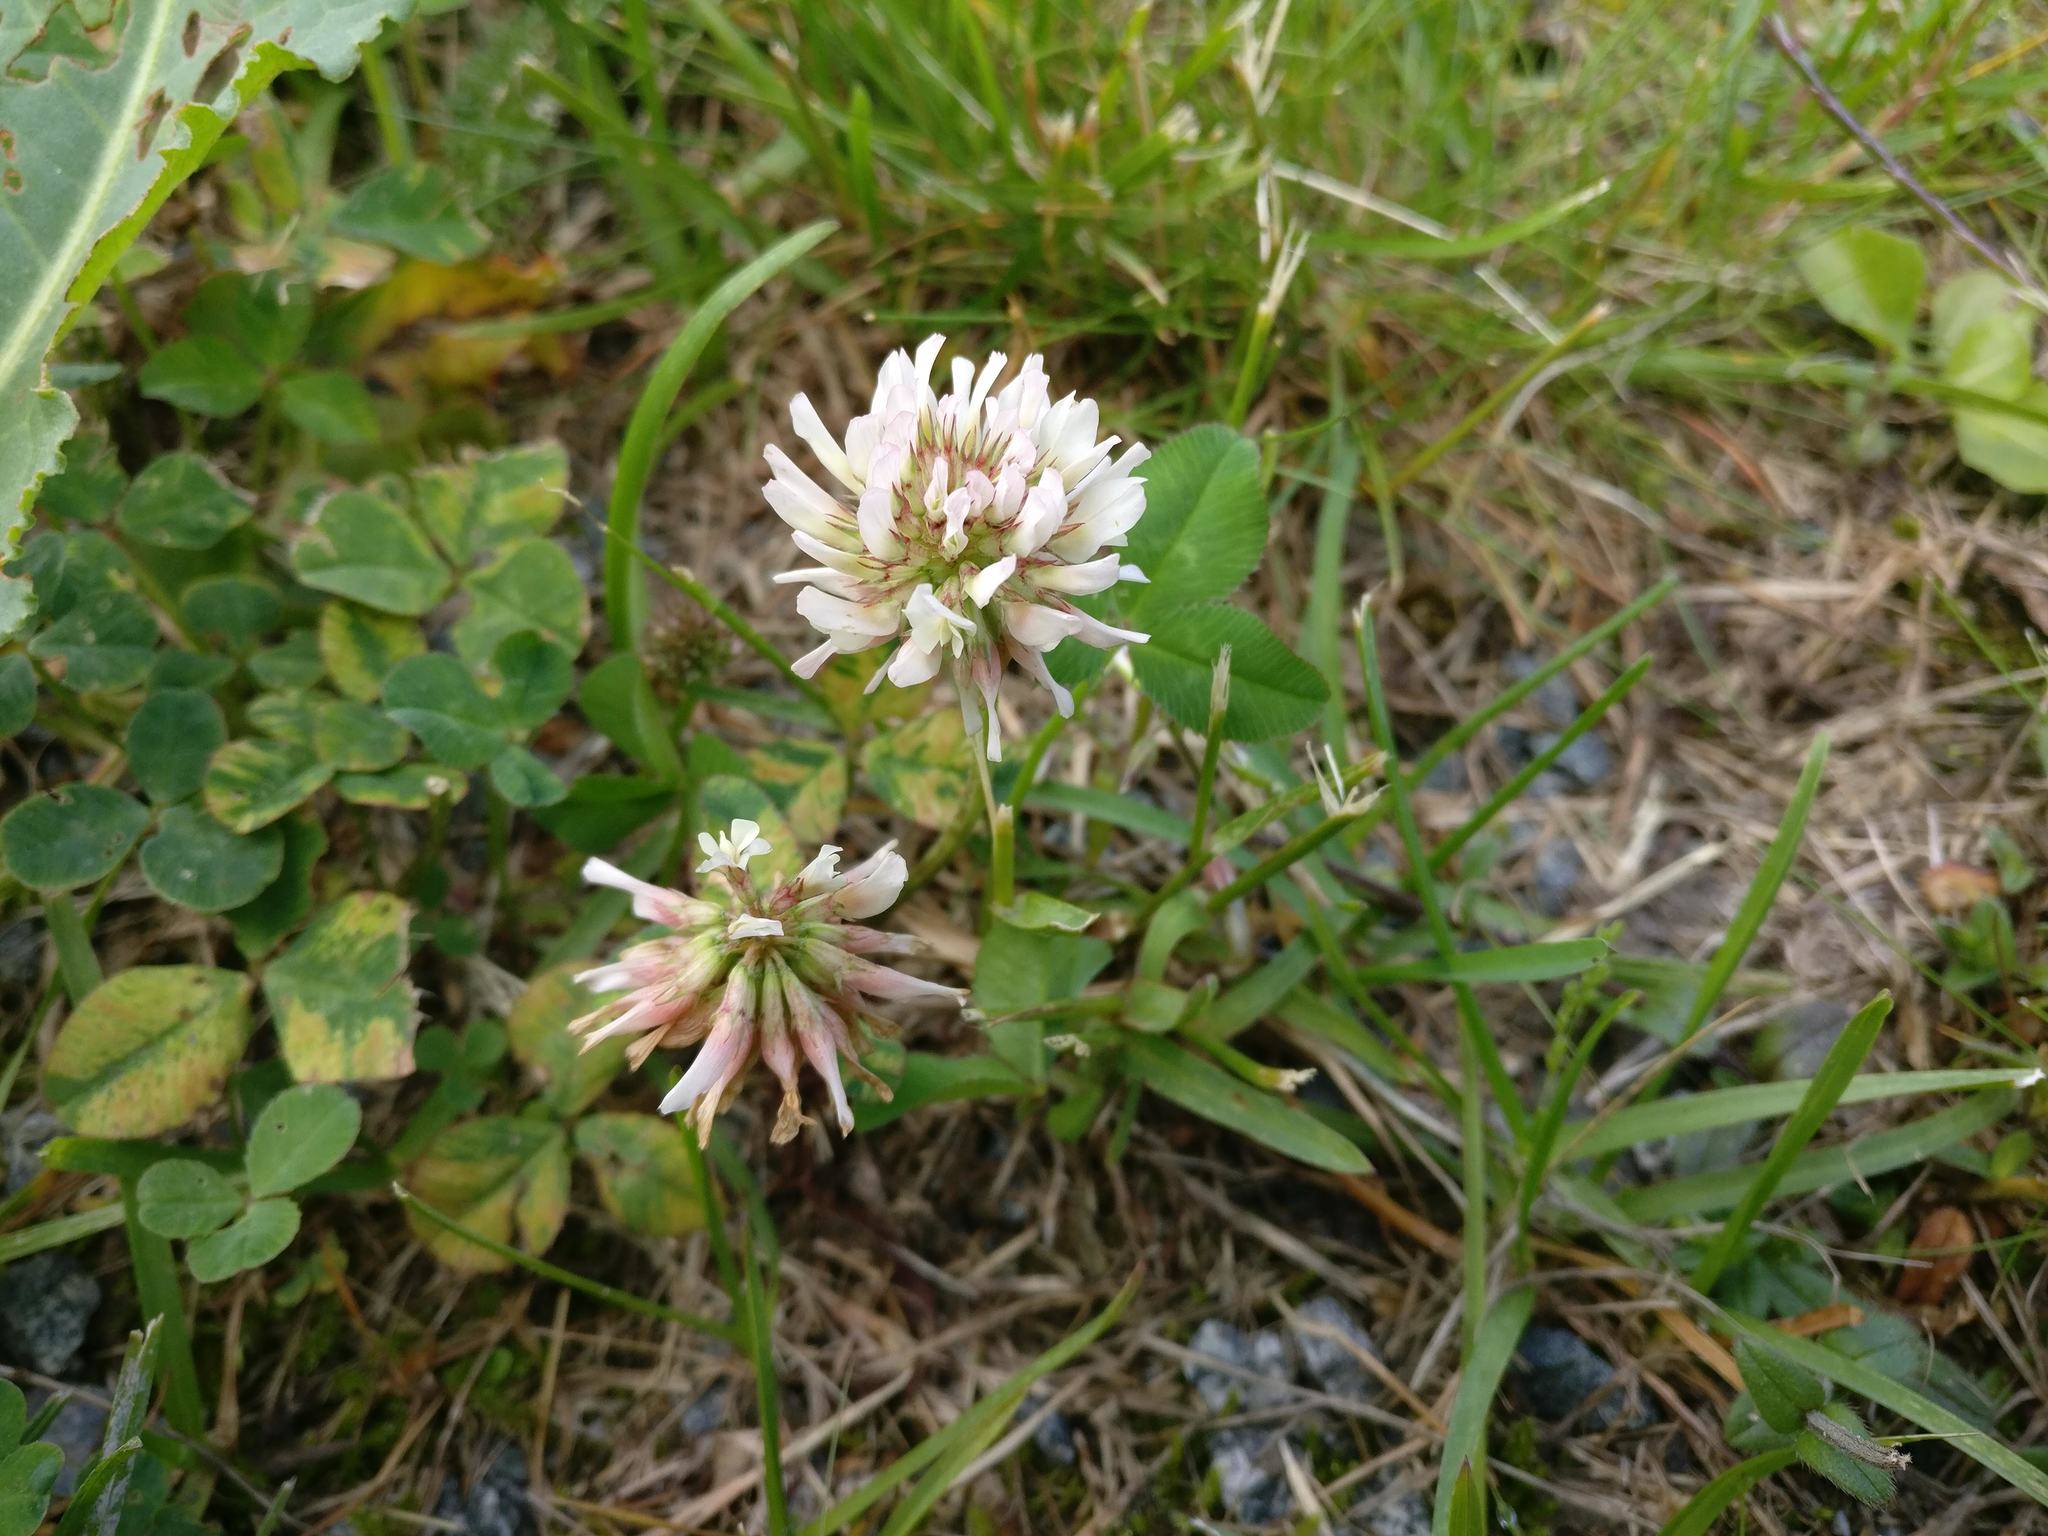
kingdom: Plantae
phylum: Tracheophyta
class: Magnoliopsida
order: Fabales
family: Fabaceae
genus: Trifolium
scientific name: Trifolium repens
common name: White clover
